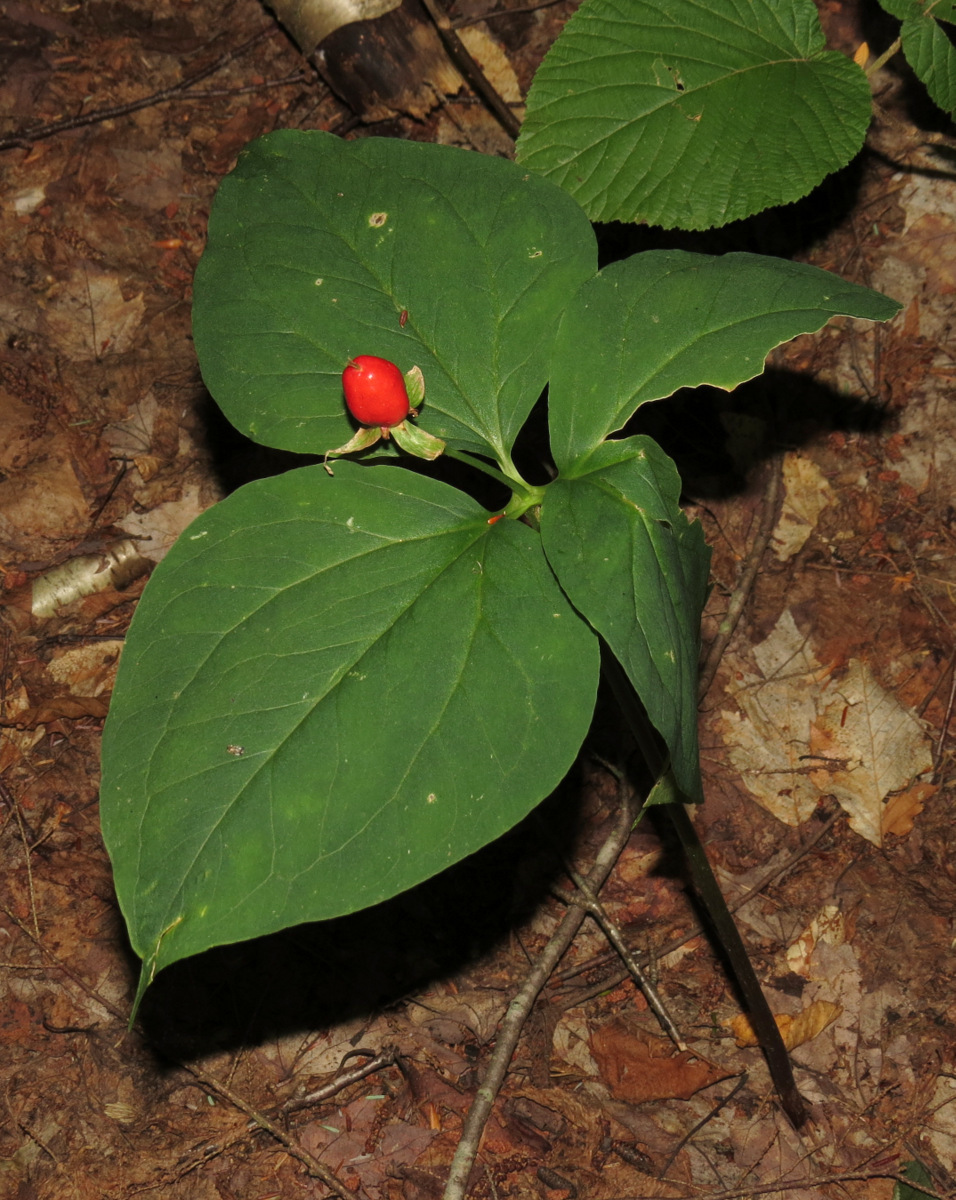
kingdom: Plantae
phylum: Tracheophyta
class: Liliopsida
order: Liliales
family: Melanthiaceae
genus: Trillium
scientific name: Trillium undulatum
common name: Paint trillium
